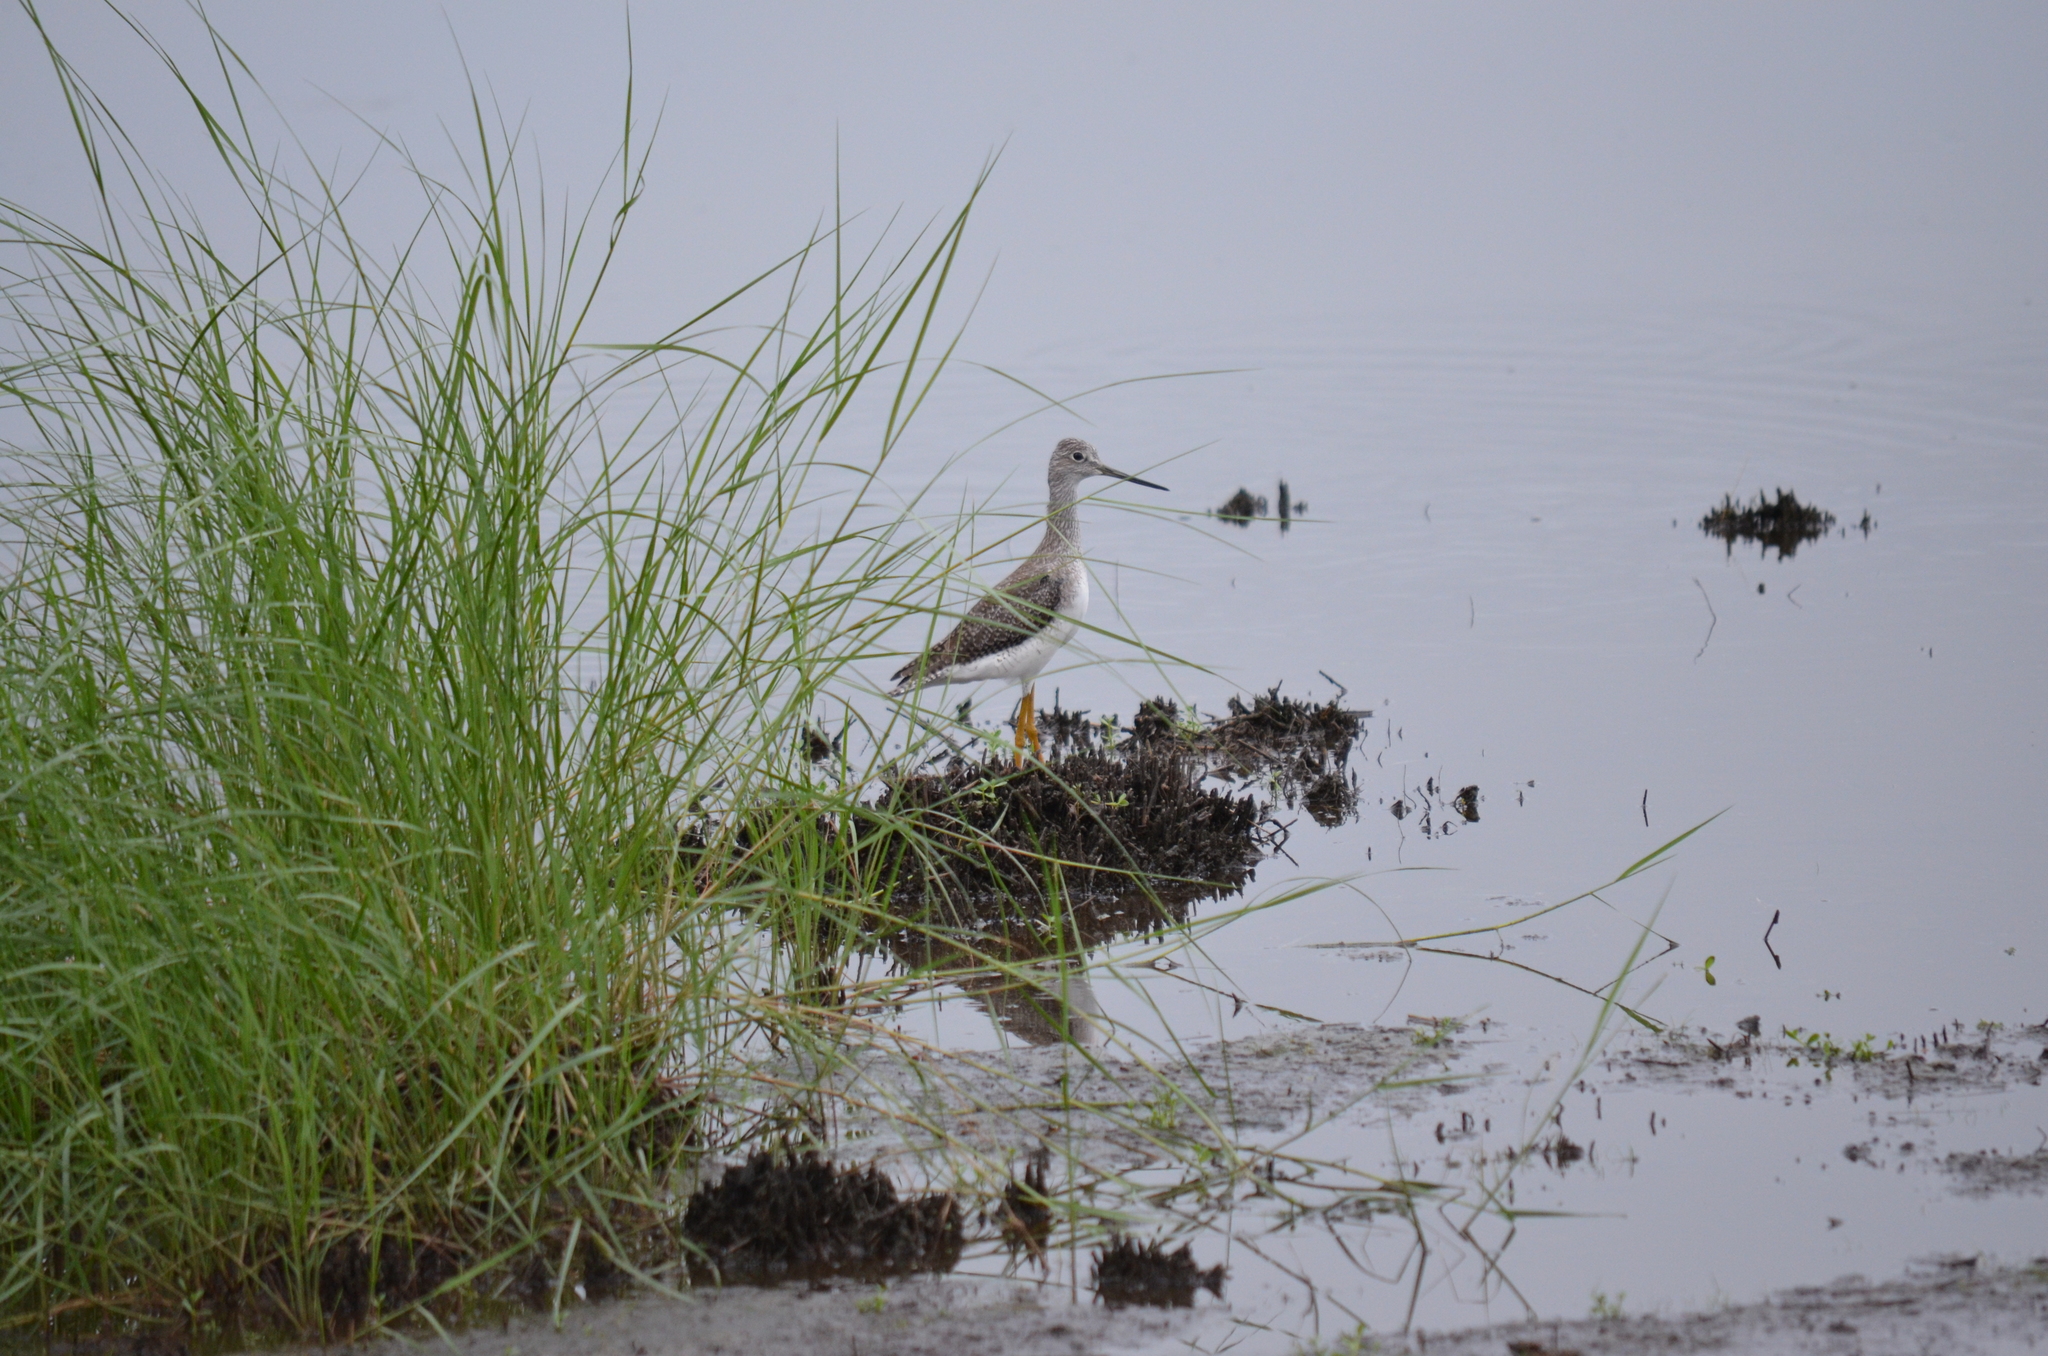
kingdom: Animalia
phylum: Chordata
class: Aves
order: Charadriiformes
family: Scolopacidae
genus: Tringa
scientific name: Tringa melanoleuca
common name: Greater yellowlegs
